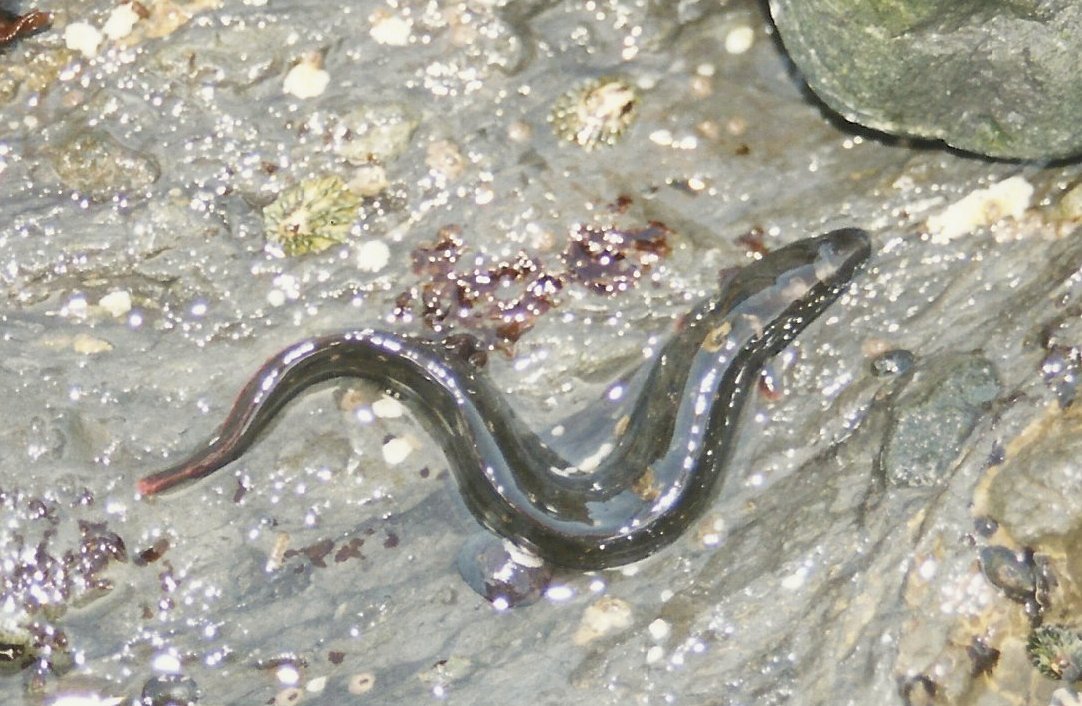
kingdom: Animalia
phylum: Chordata
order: Perciformes
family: Stichaeidae
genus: Cebidichthys
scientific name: Cebidichthys violaceus
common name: Monkeyface prickleback
